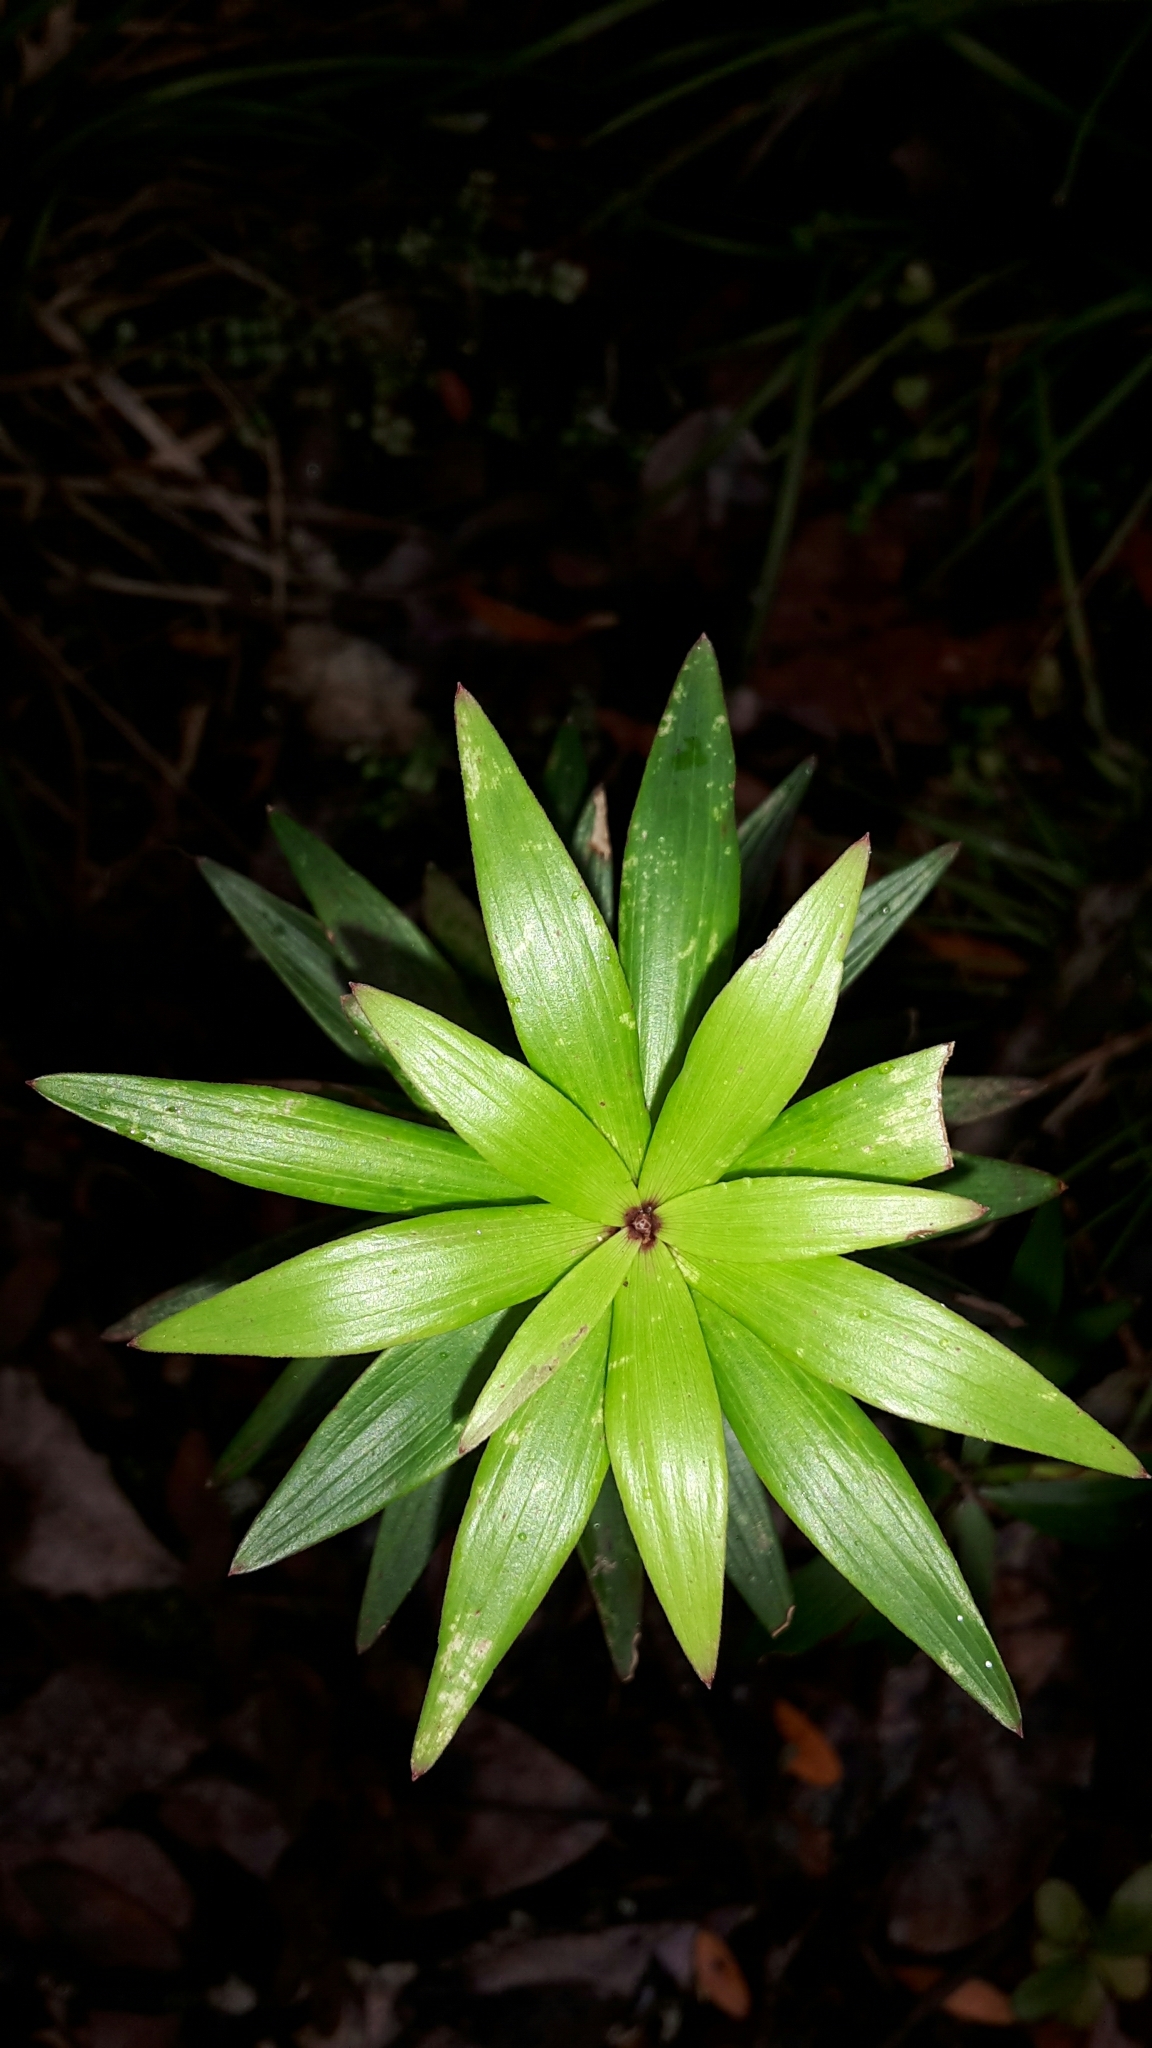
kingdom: Plantae
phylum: Tracheophyta
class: Magnoliopsida
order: Ericales
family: Ericaceae
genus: Leucopogon
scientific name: Leucopogon fasciculatus
